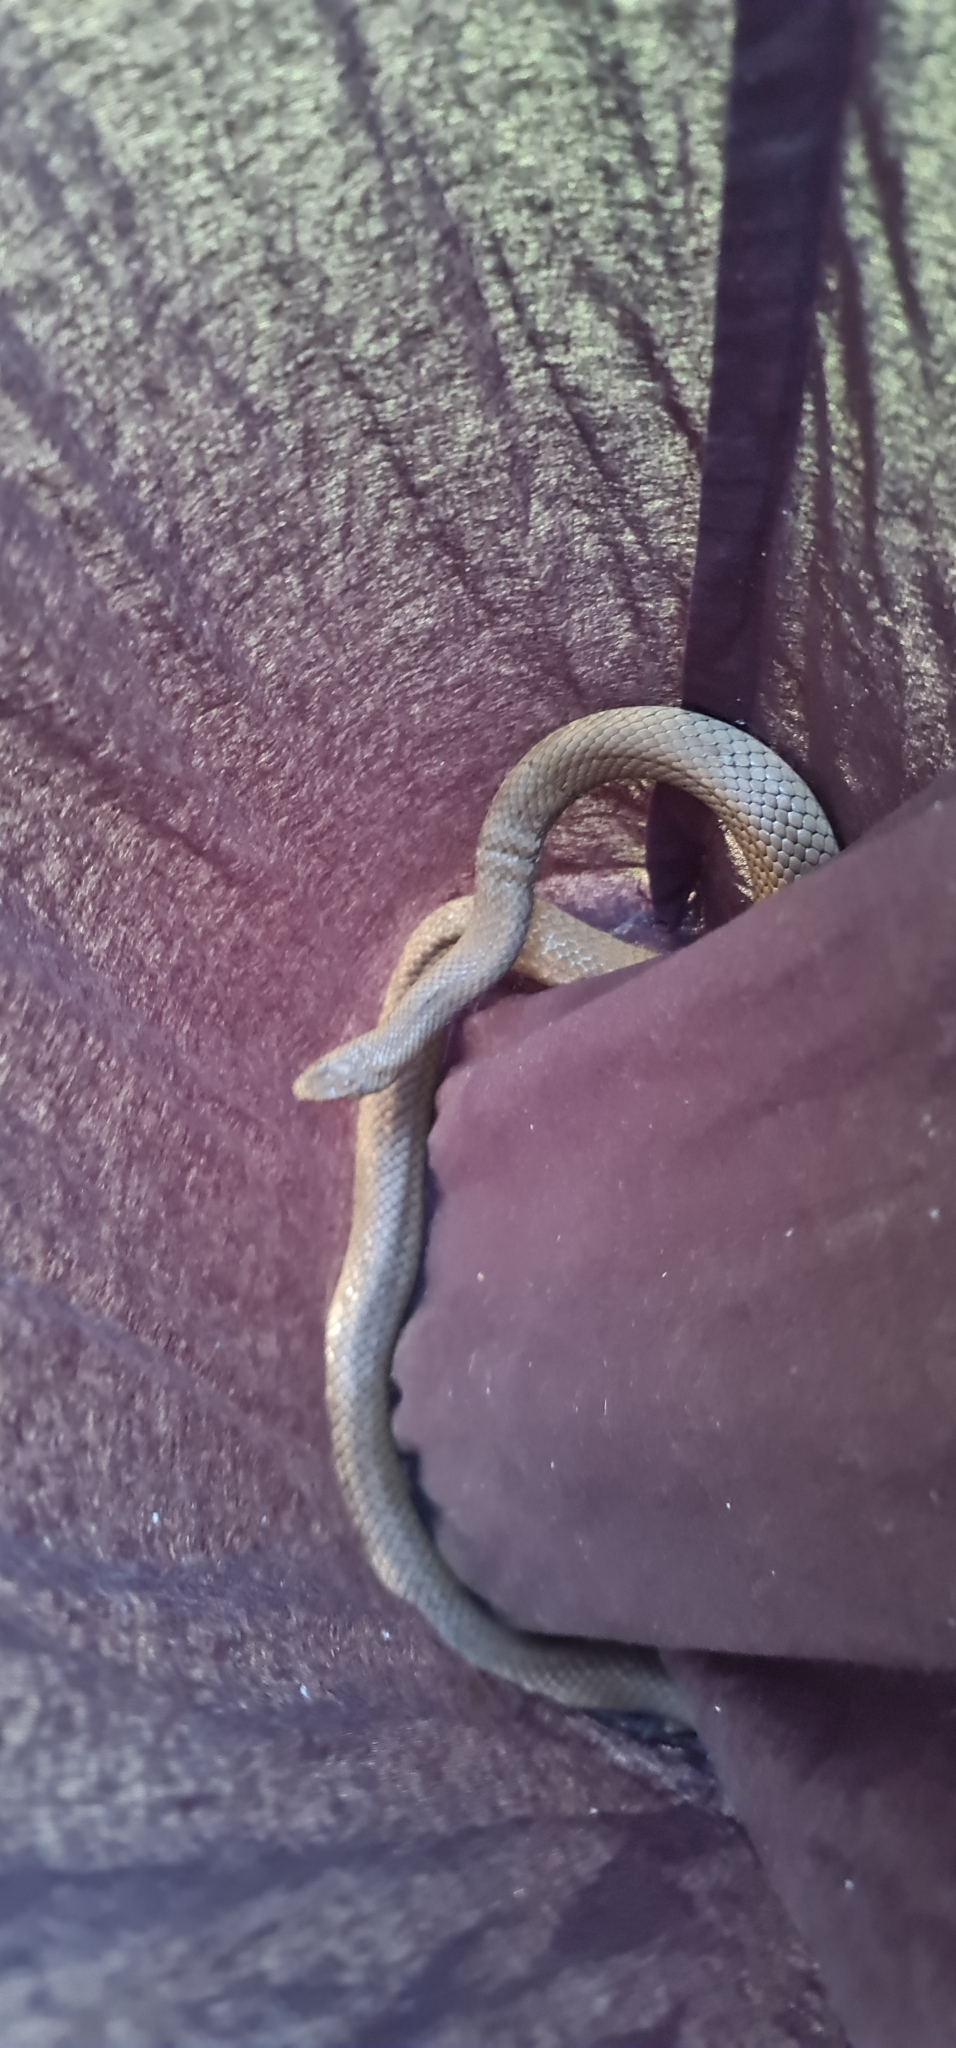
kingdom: Animalia
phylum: Chordata
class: Squamata
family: Elapidae
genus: Pseudonaja
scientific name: Pseudonaja textilis
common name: Eastern brown snake
